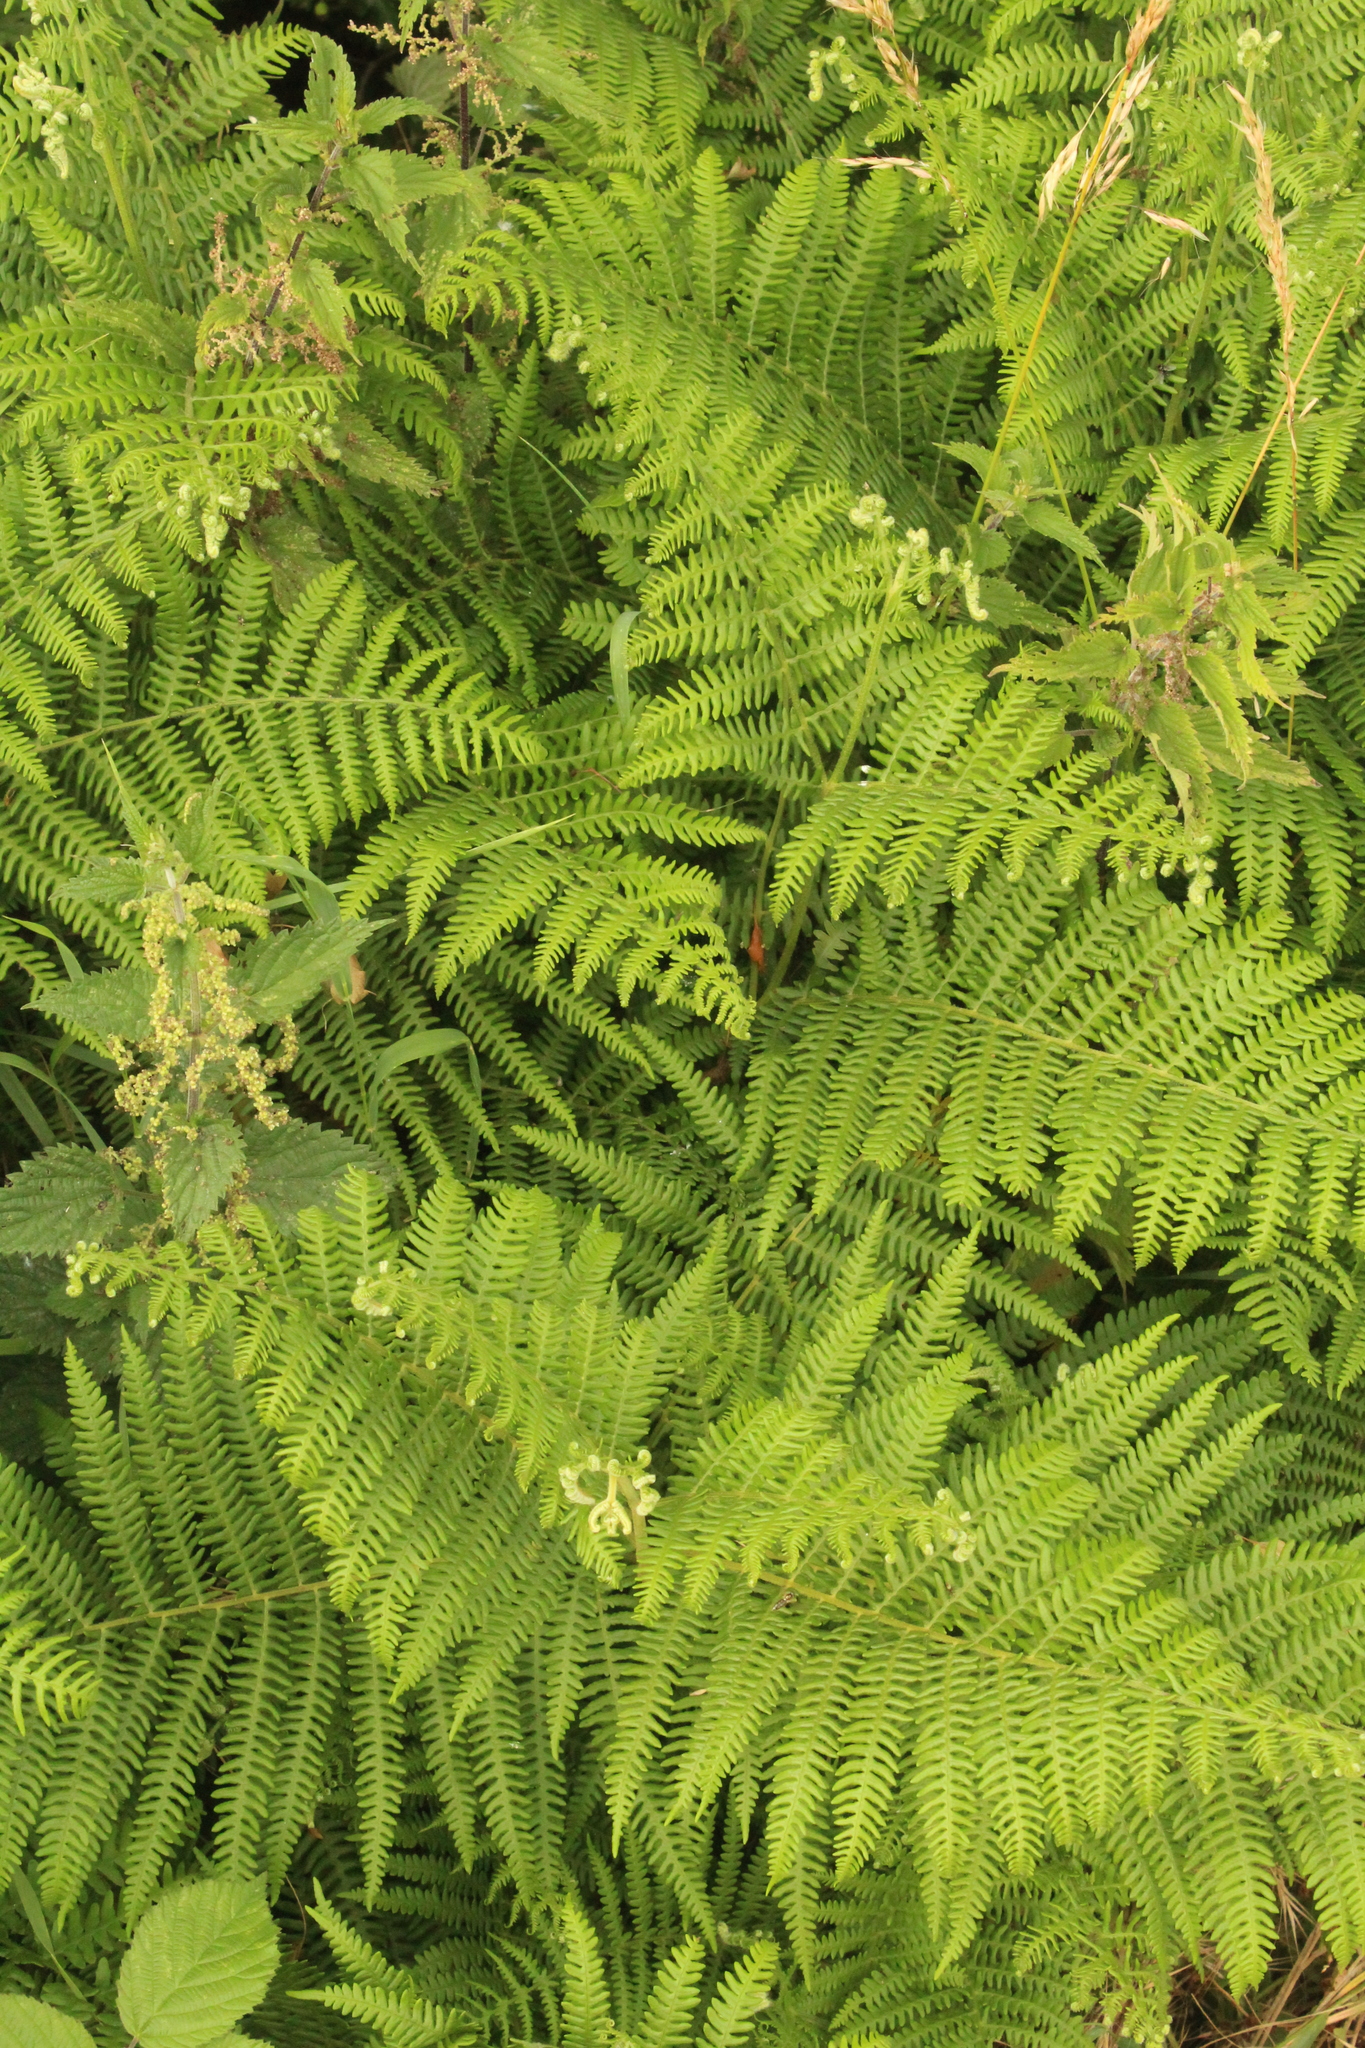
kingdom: Plantae
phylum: Tracheophyta
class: Polypodiopsida
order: Polypodiales
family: Dennstaedtiaceae
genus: Pteridium
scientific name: Pteridium aquilinum
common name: Bracken
